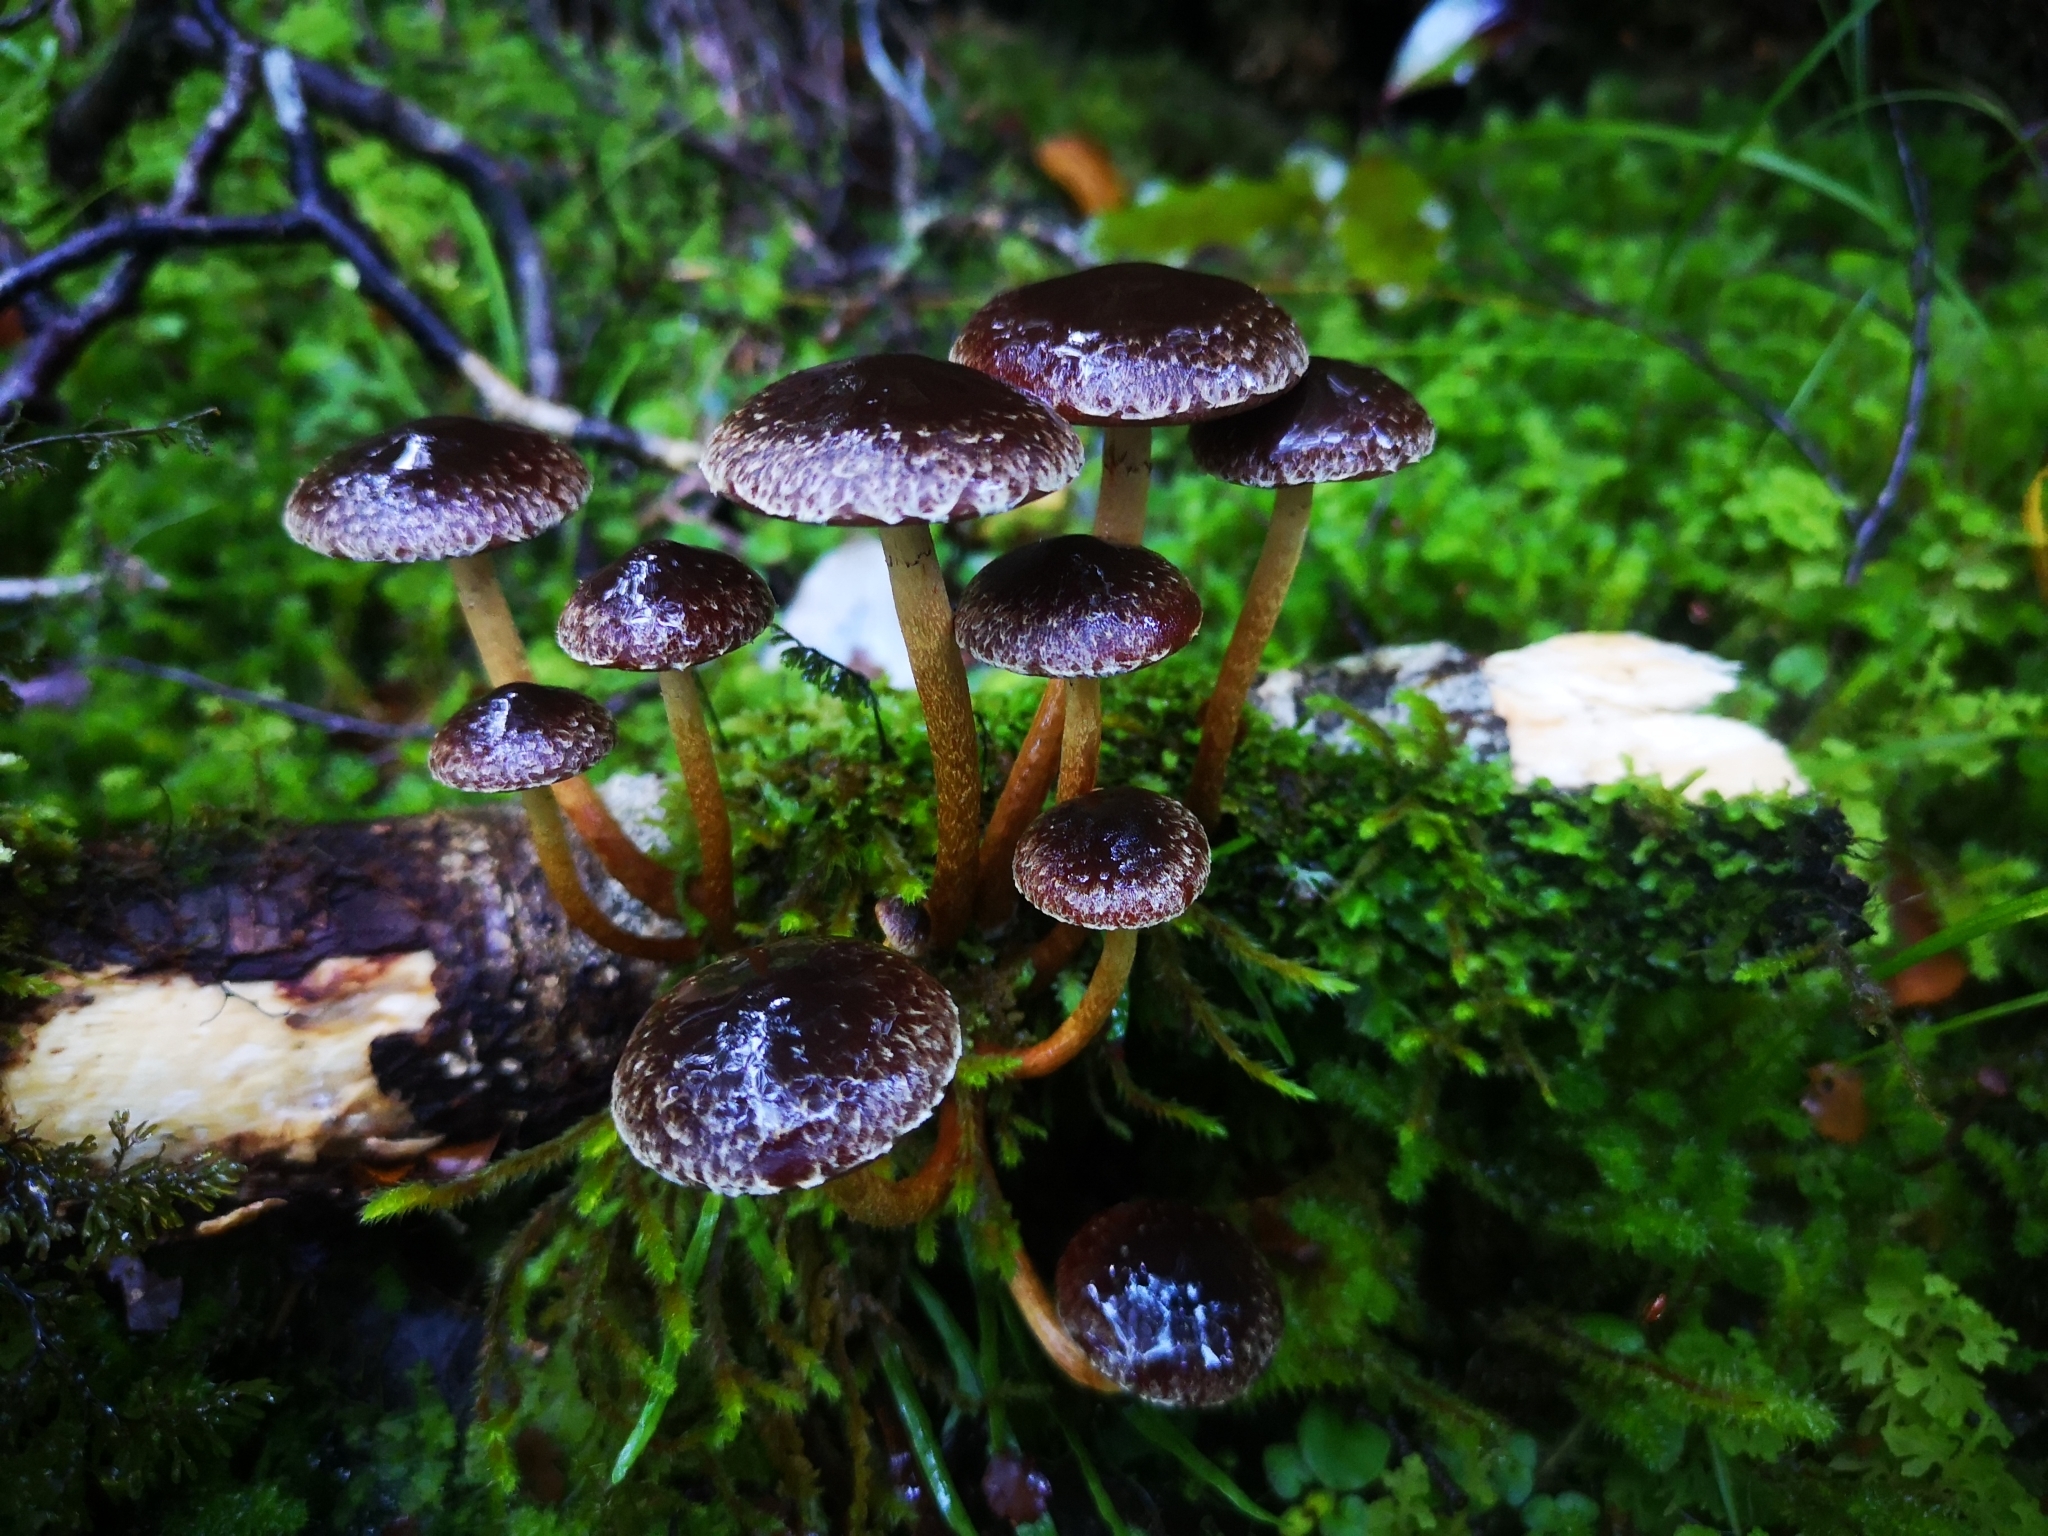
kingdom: Fungi
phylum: Basidiomycota
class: Agaricomycetes
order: Agaricales
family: Strophariaceae
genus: Hypholoma
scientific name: Hypholoma brunneum
